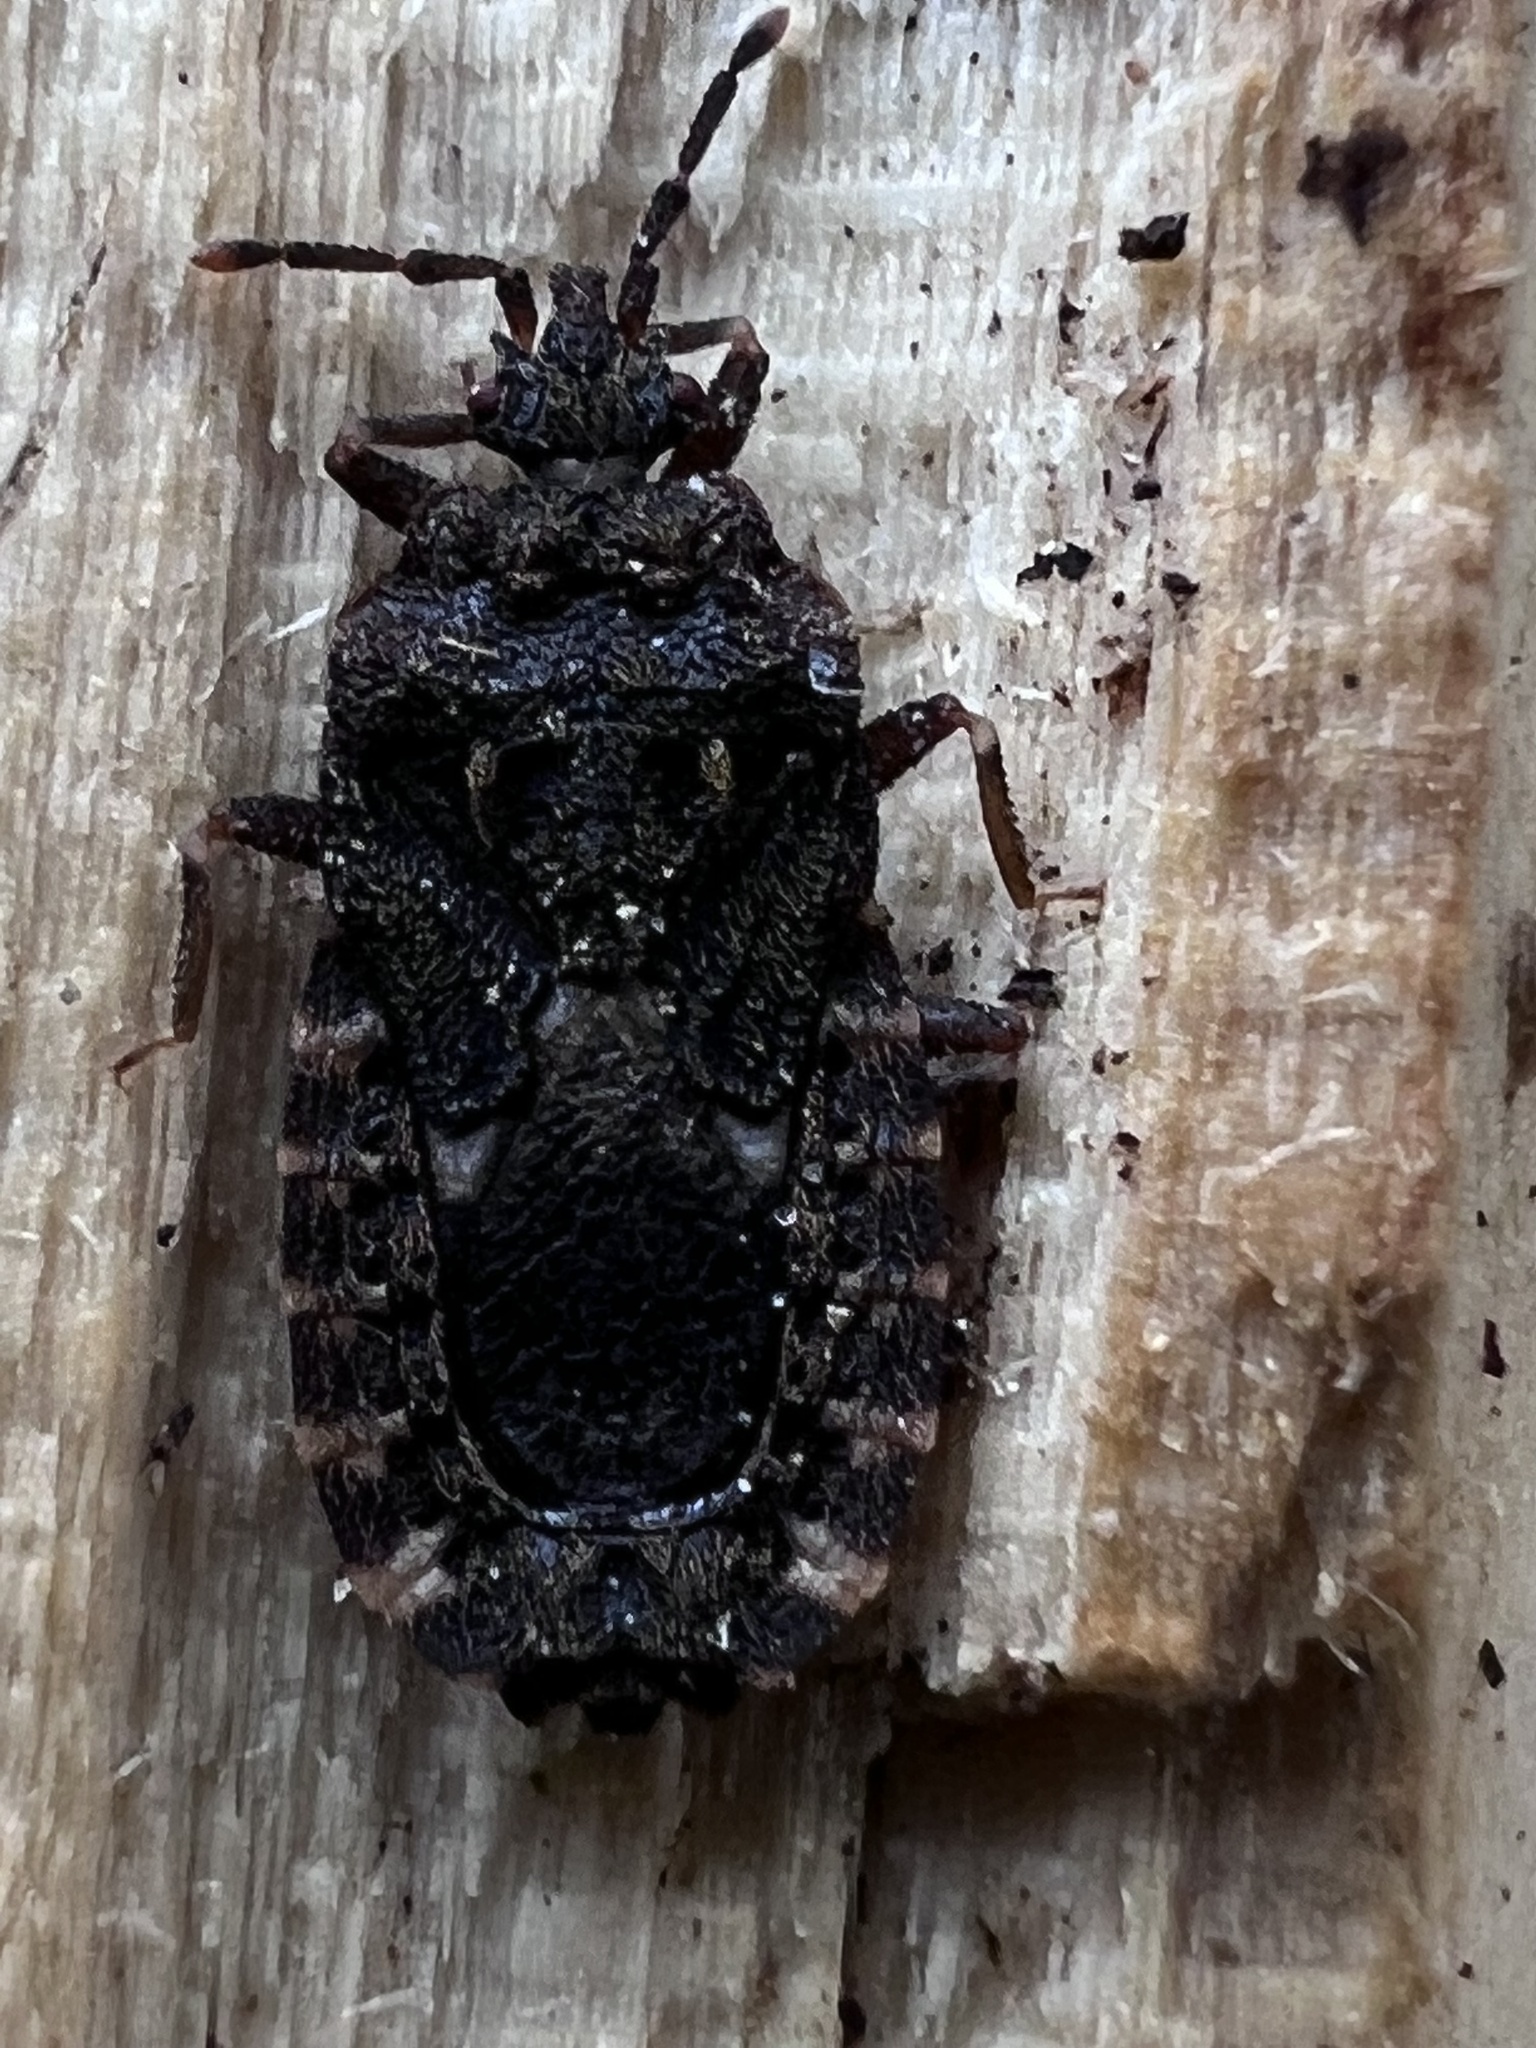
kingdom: Animalia
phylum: Arthropoda
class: Insecta
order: Hemiptera
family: Aradidae
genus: Mezira
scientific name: Mezira
